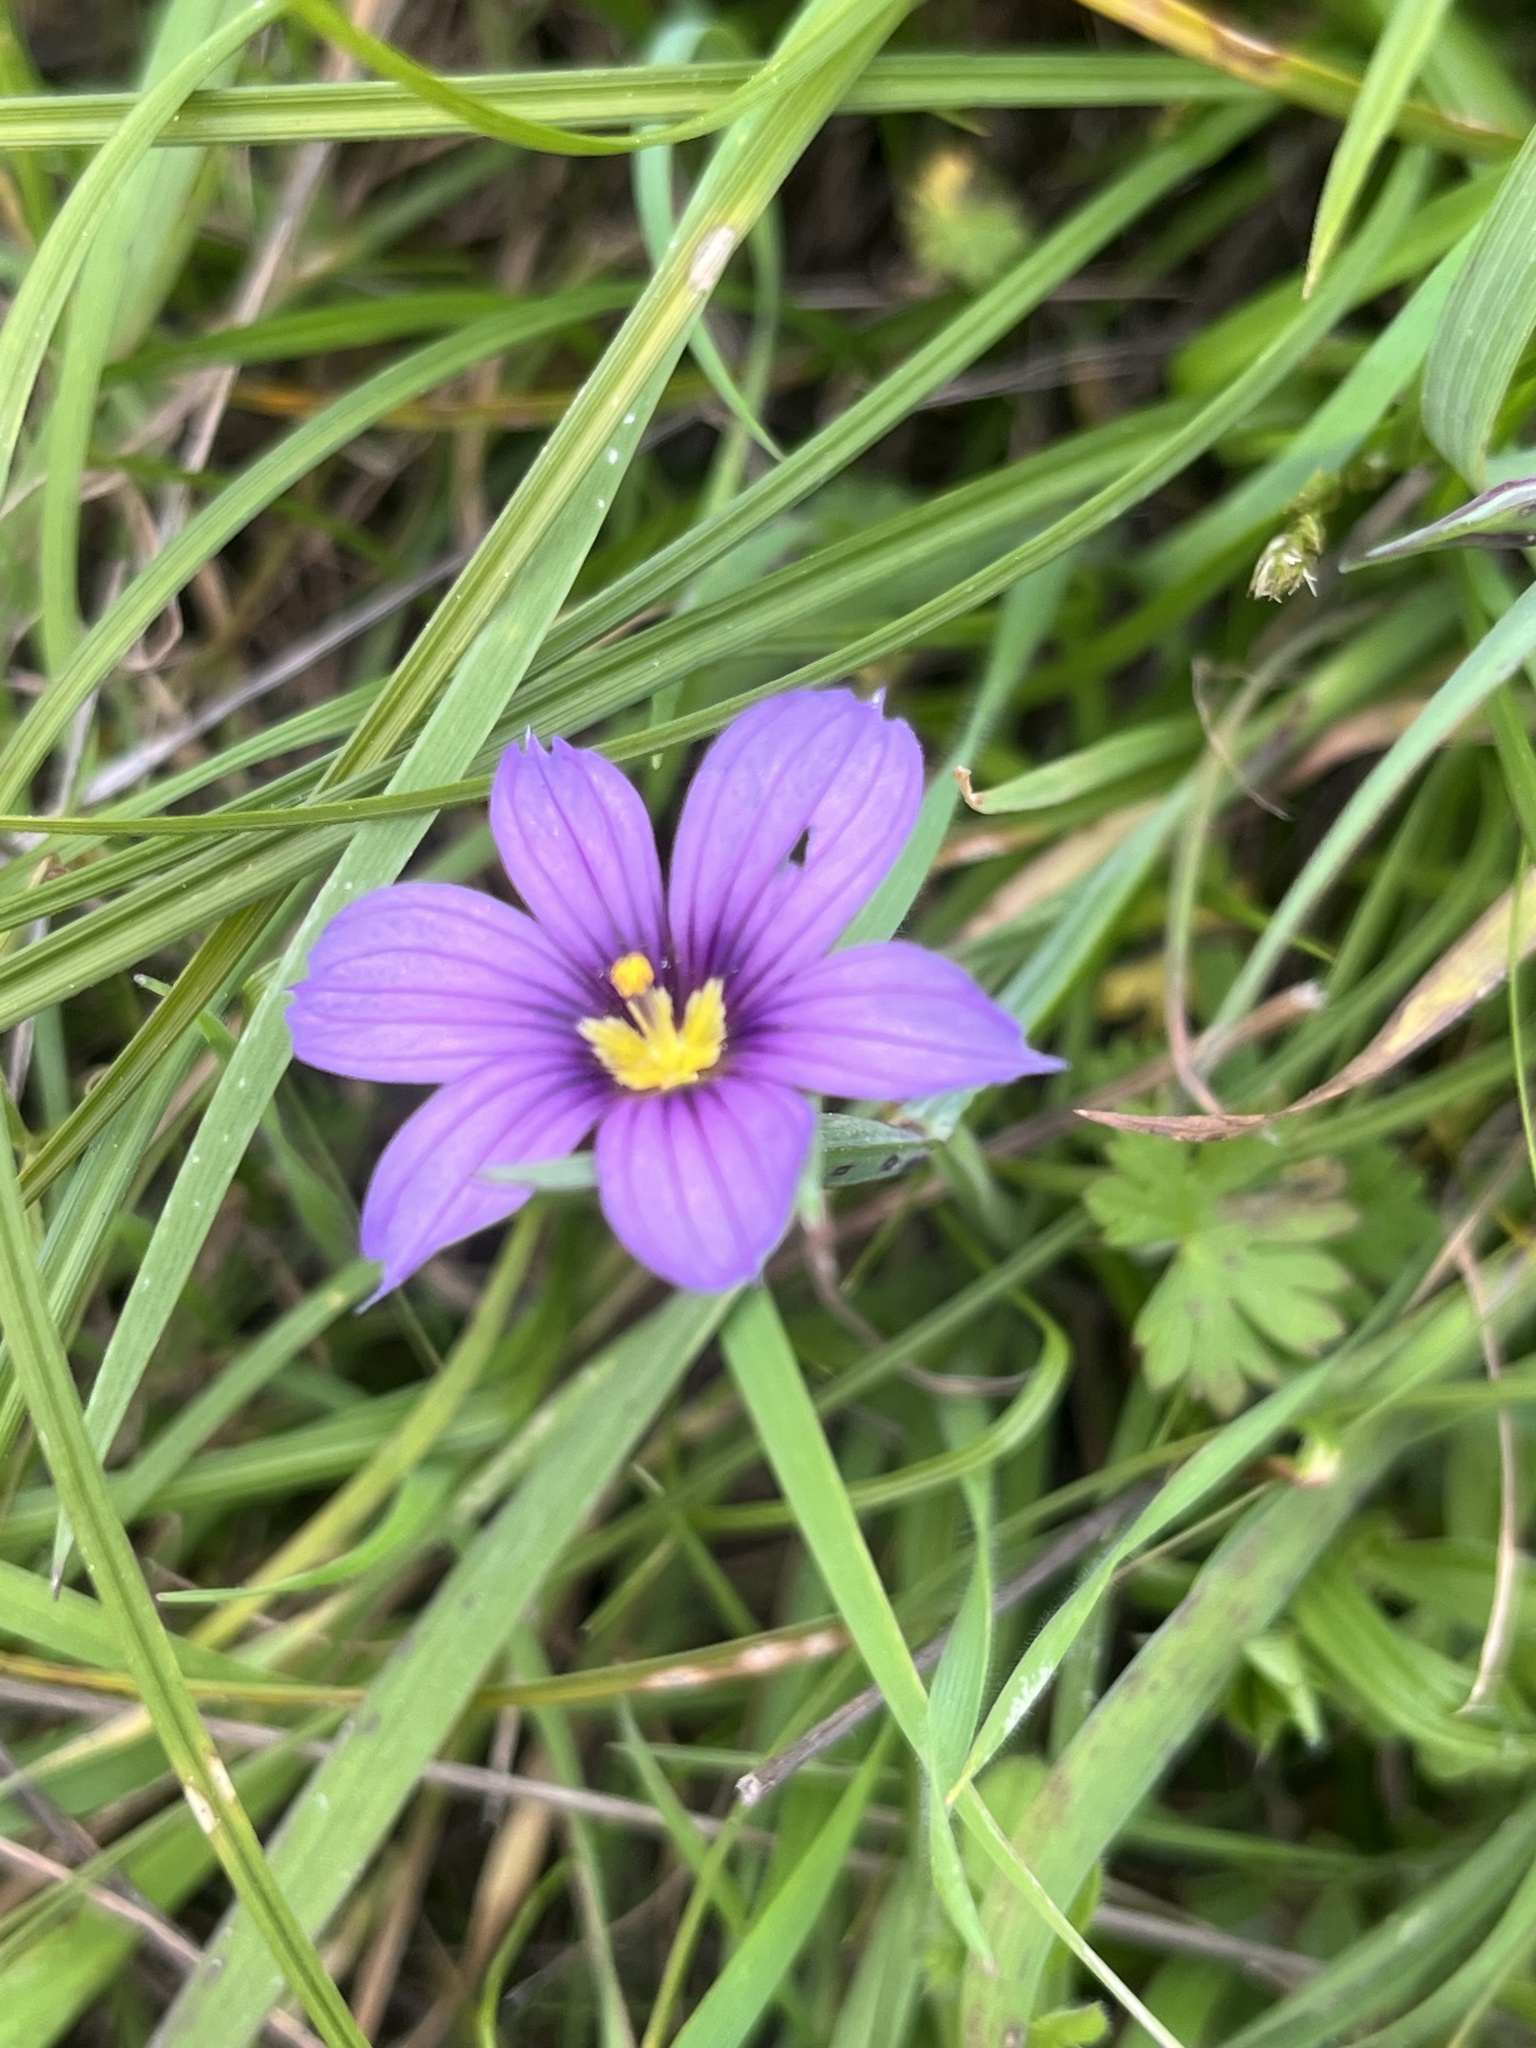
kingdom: Plantae
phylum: Tracheophyta
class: Liliopsida
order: Asparagales
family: Iridaceae
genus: Sisyrinchium
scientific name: Sisyrinchium bellum
